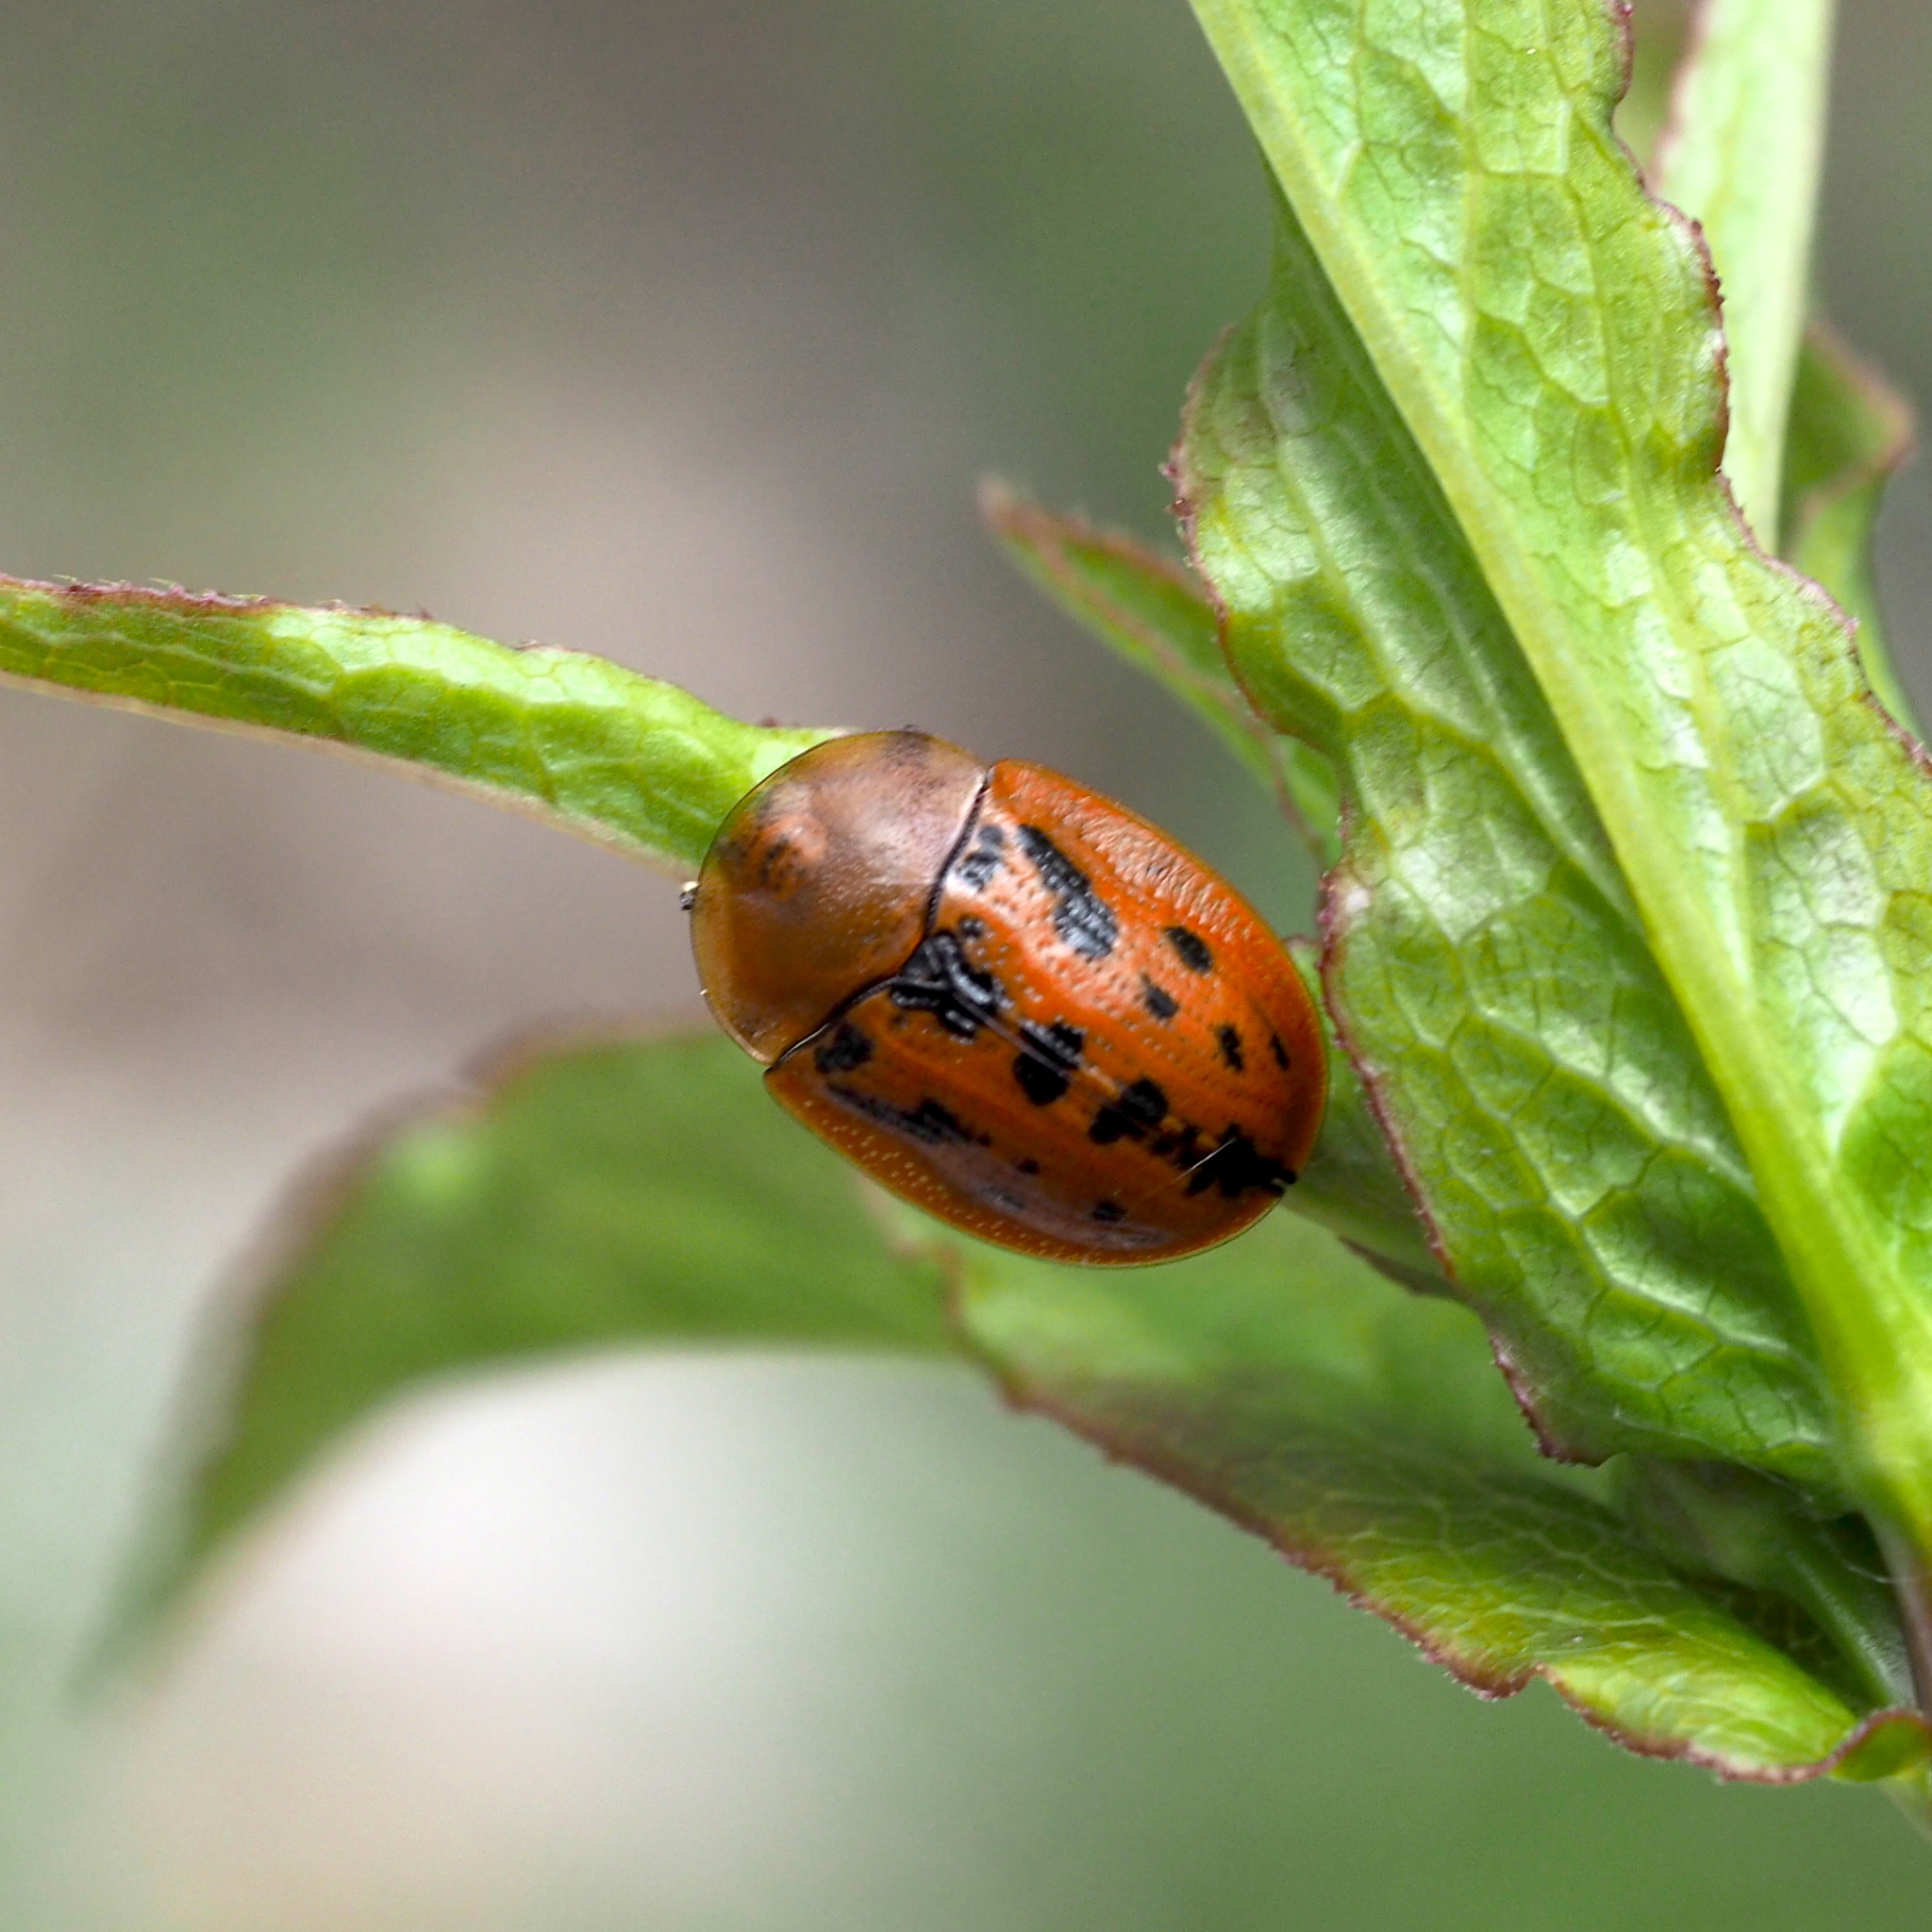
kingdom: Animalia
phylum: Arthropoda
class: Insecta
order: Coleoptera
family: Chrysomelidae
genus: Cassida
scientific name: Cassida murraea
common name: Fleabane tortoise beetle
